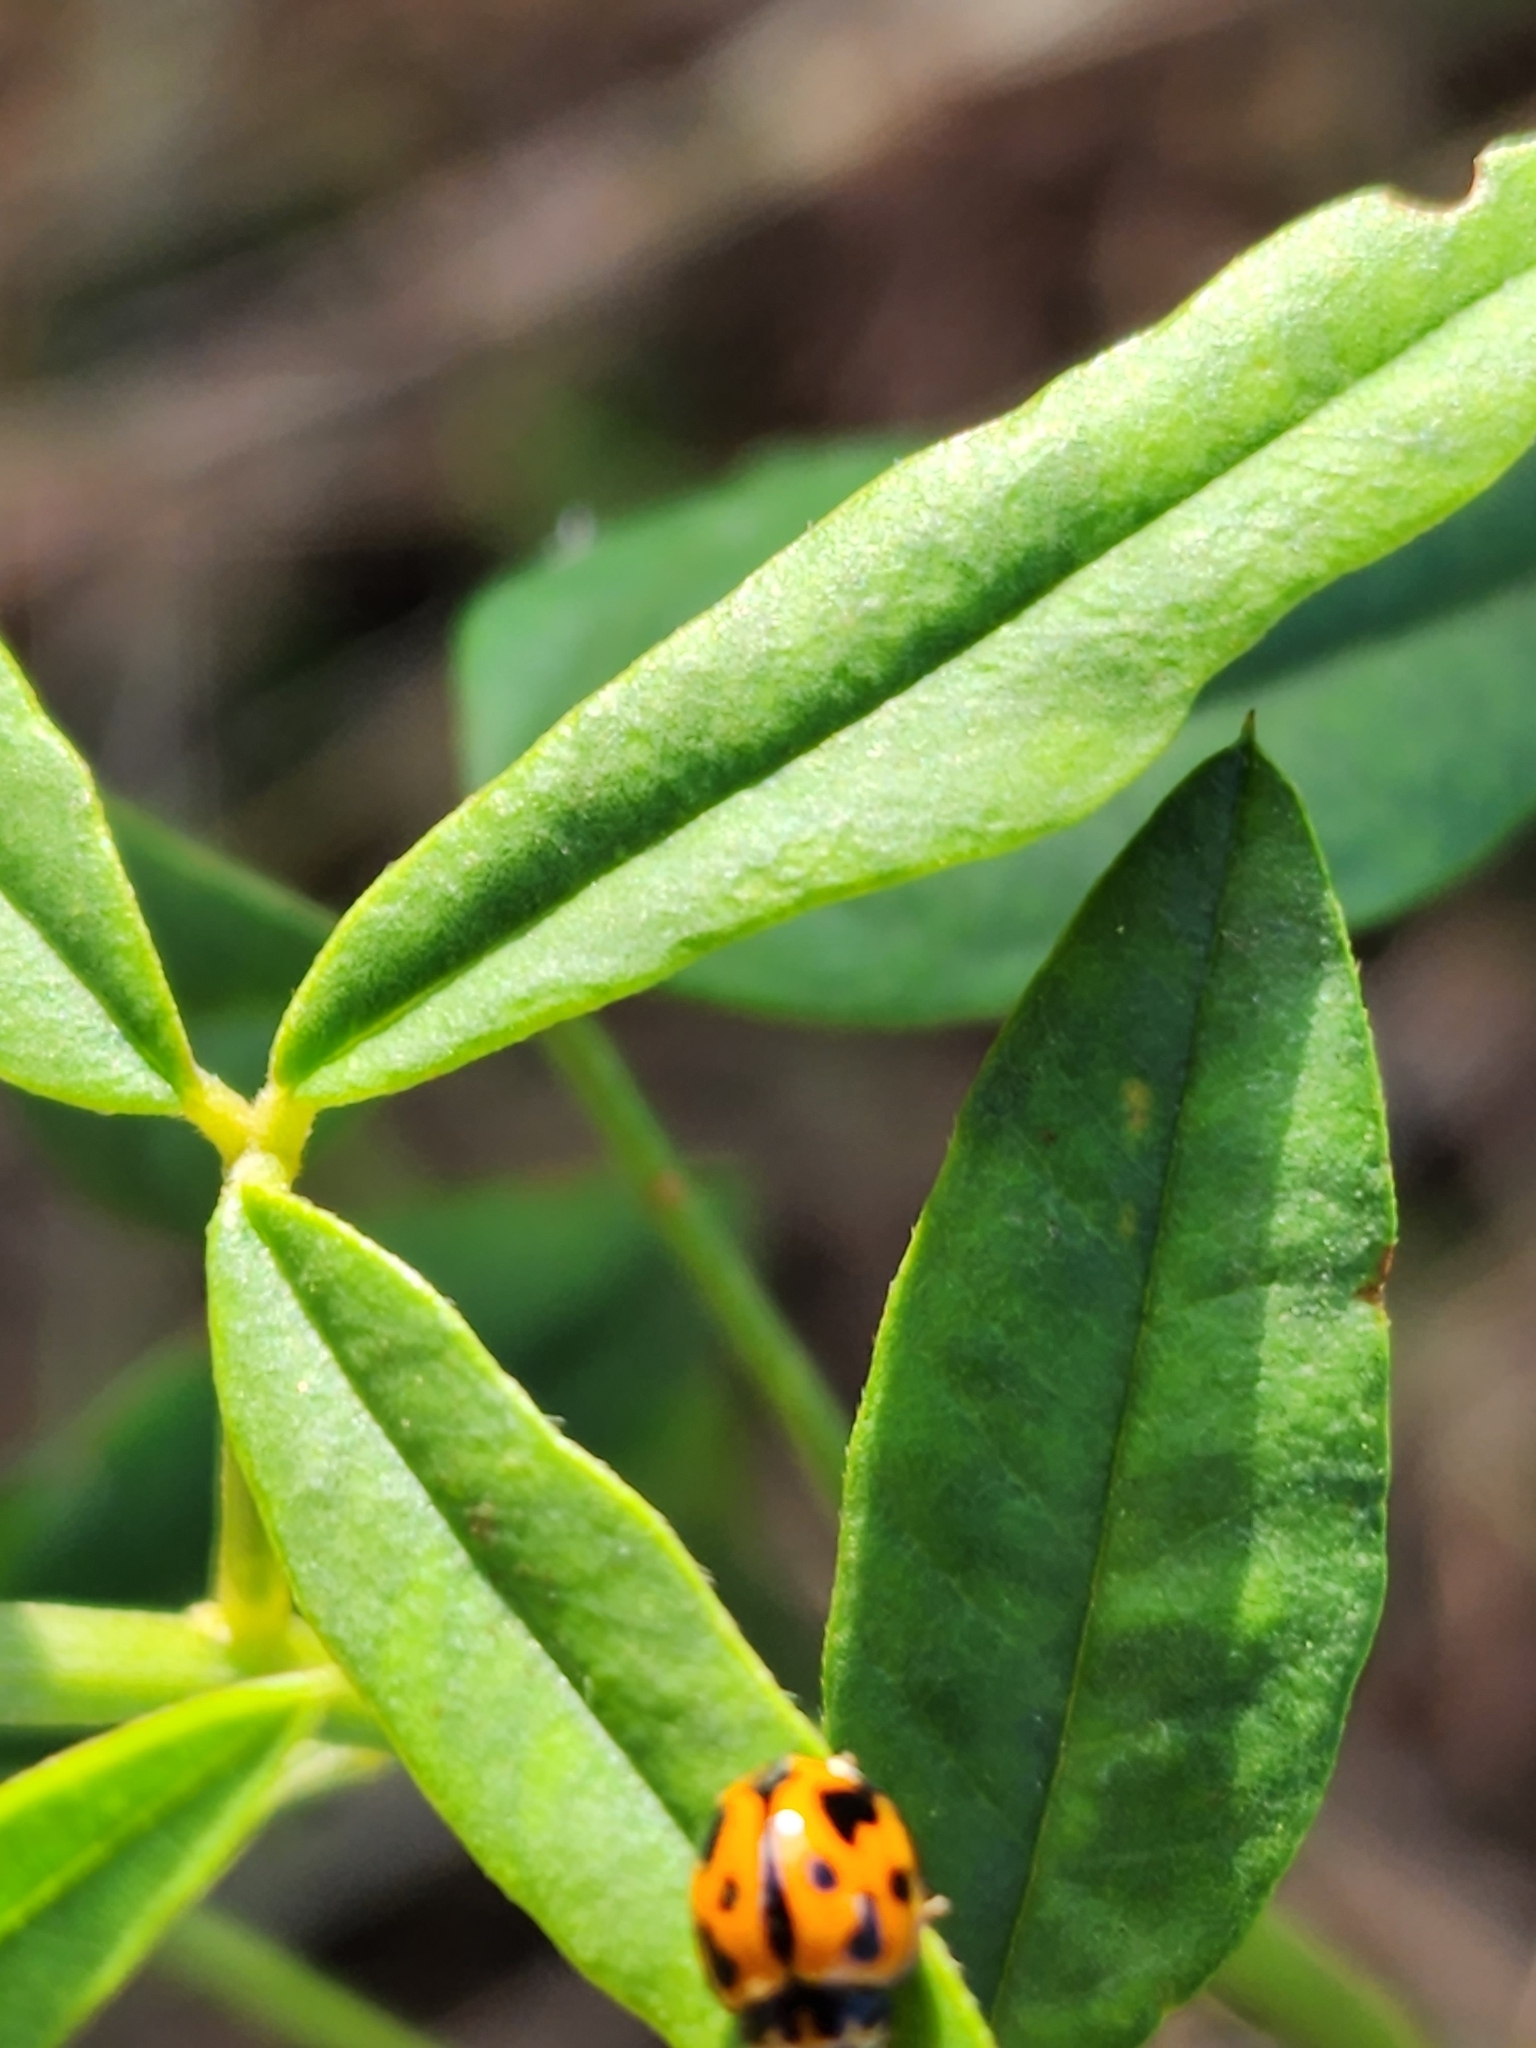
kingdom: Animalia
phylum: Arthropoda
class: Insecta
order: Coleoptera
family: Coccinellidae
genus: Coelophora
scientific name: Coelophora inaequalis
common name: Common australian lady beetle
